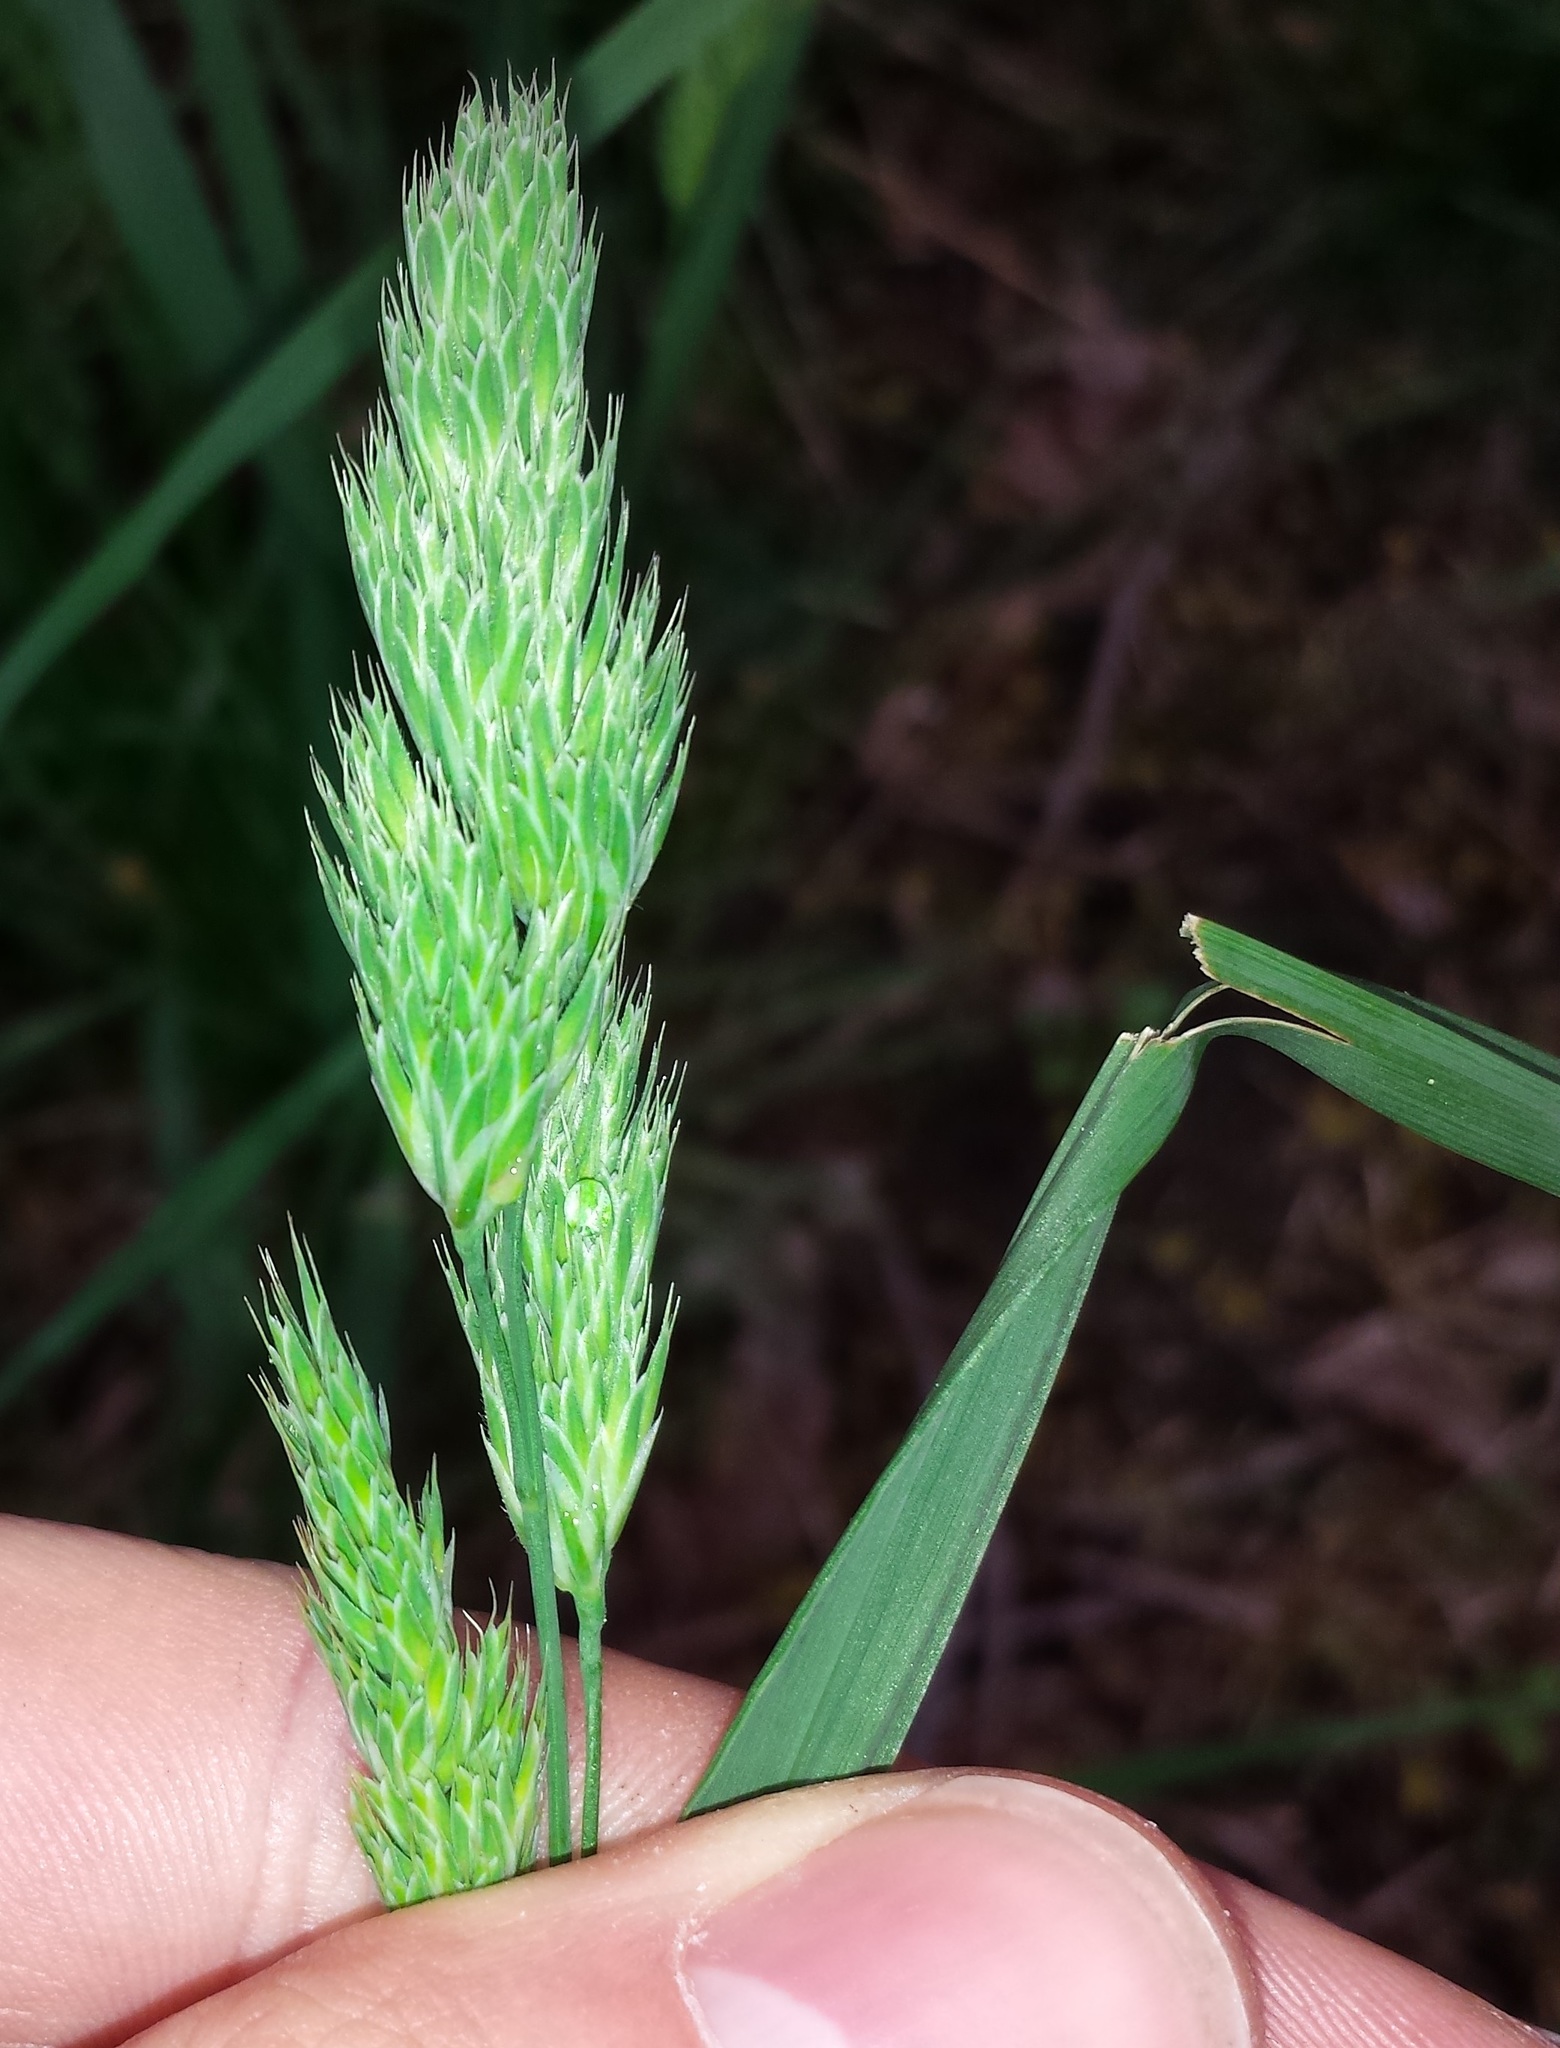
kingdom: Plantae
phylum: Tracheophyta
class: Liliopsida
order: Poales
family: Poaceae
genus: Dactylis
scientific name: Dactylis glomerata
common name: Orchardgrass
